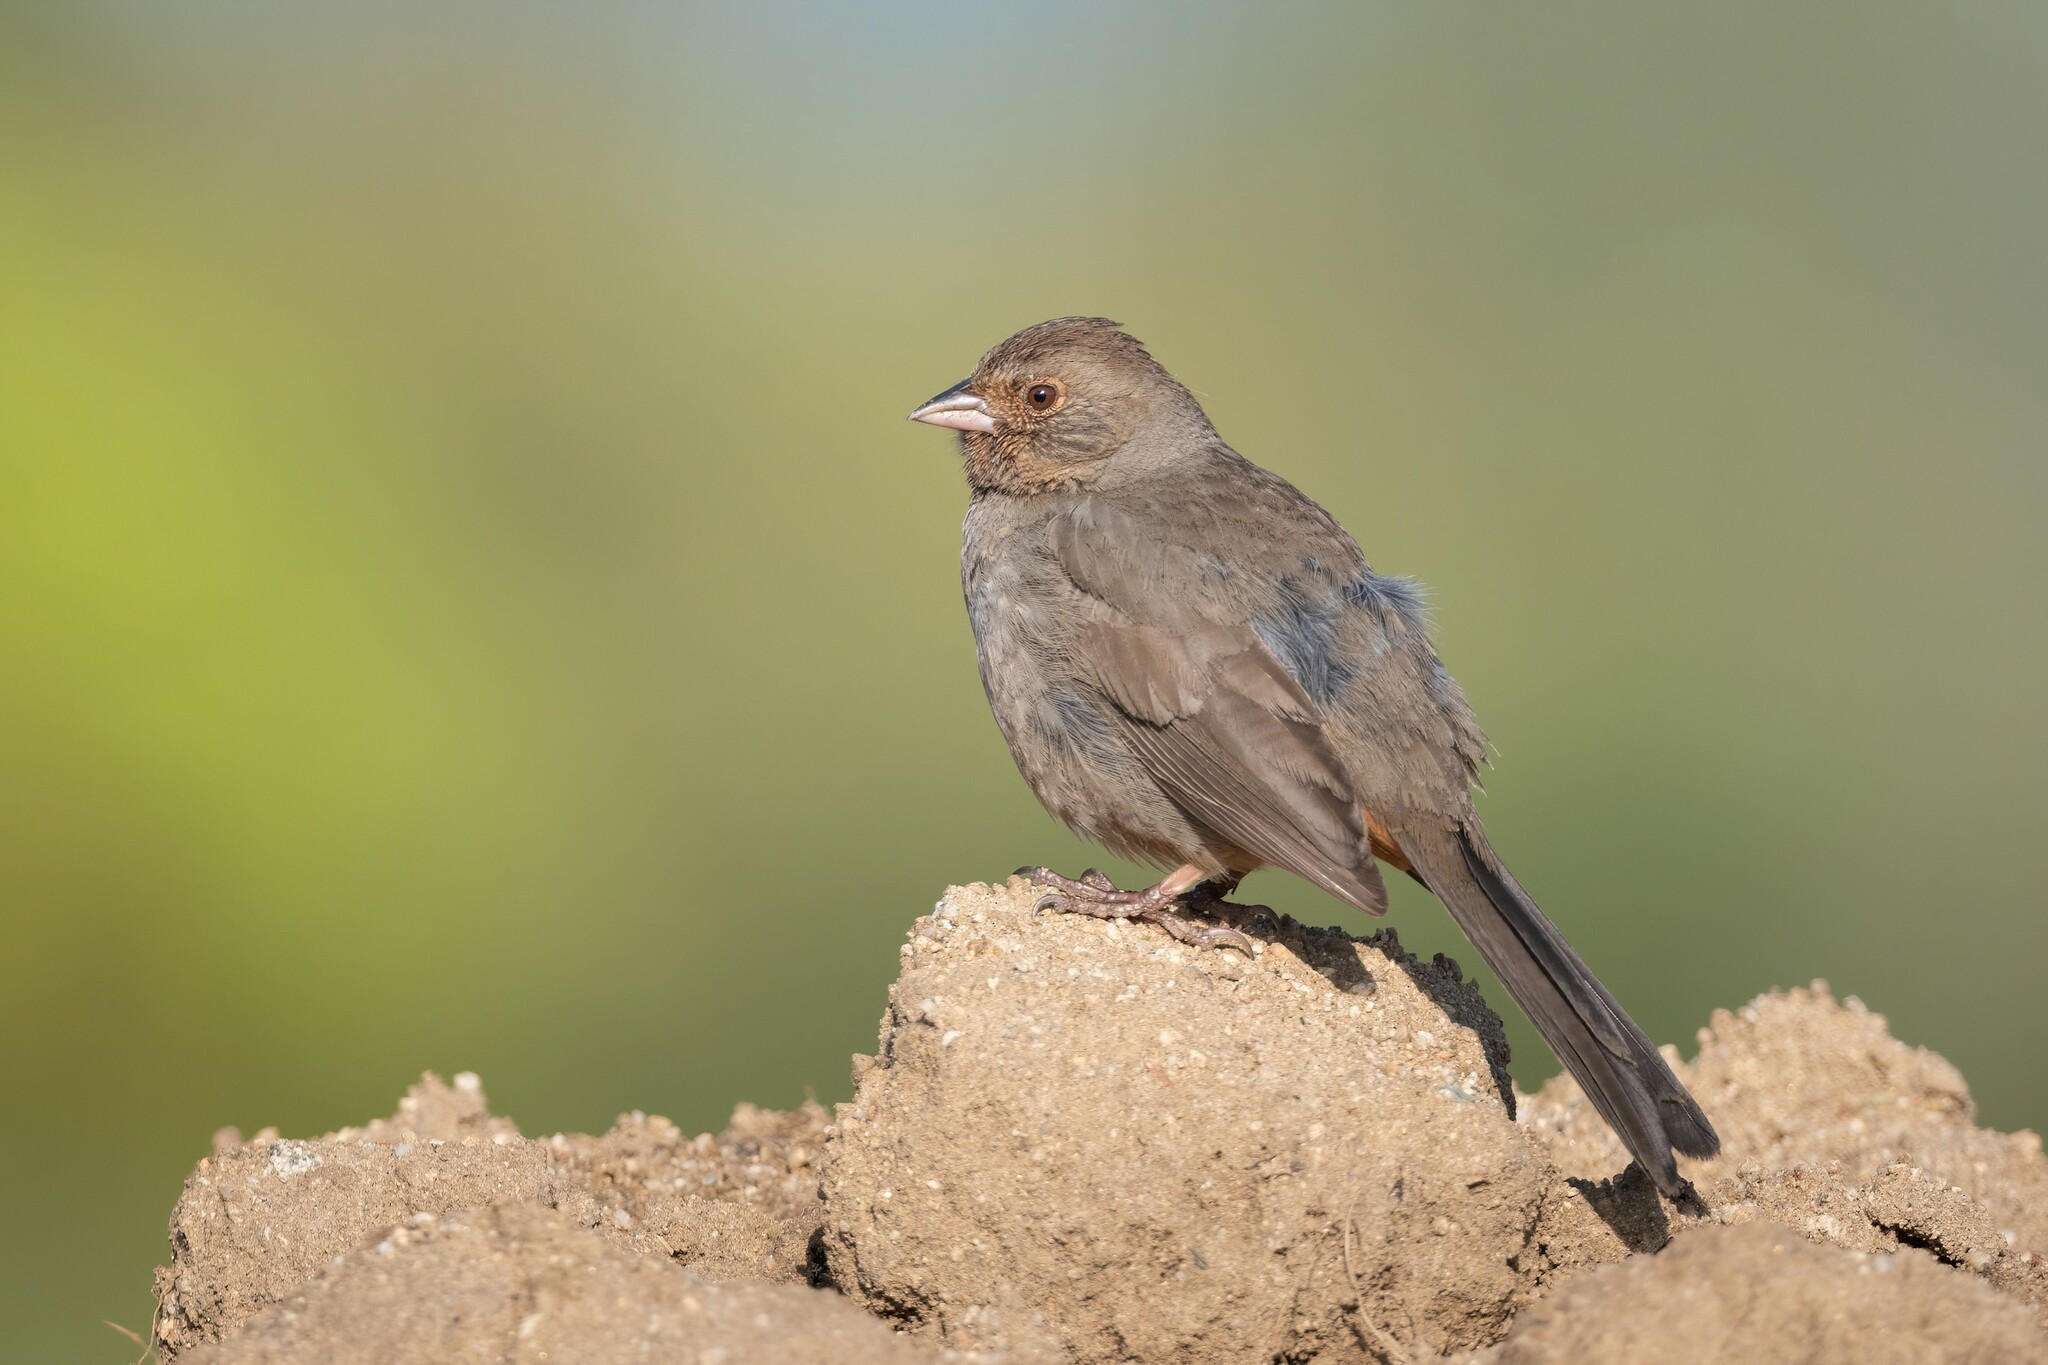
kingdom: Animalia
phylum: Chordata
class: Aves
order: Passeriformes
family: Passerellidae
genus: Melozone
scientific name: Melozone crissalis
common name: California towhee
